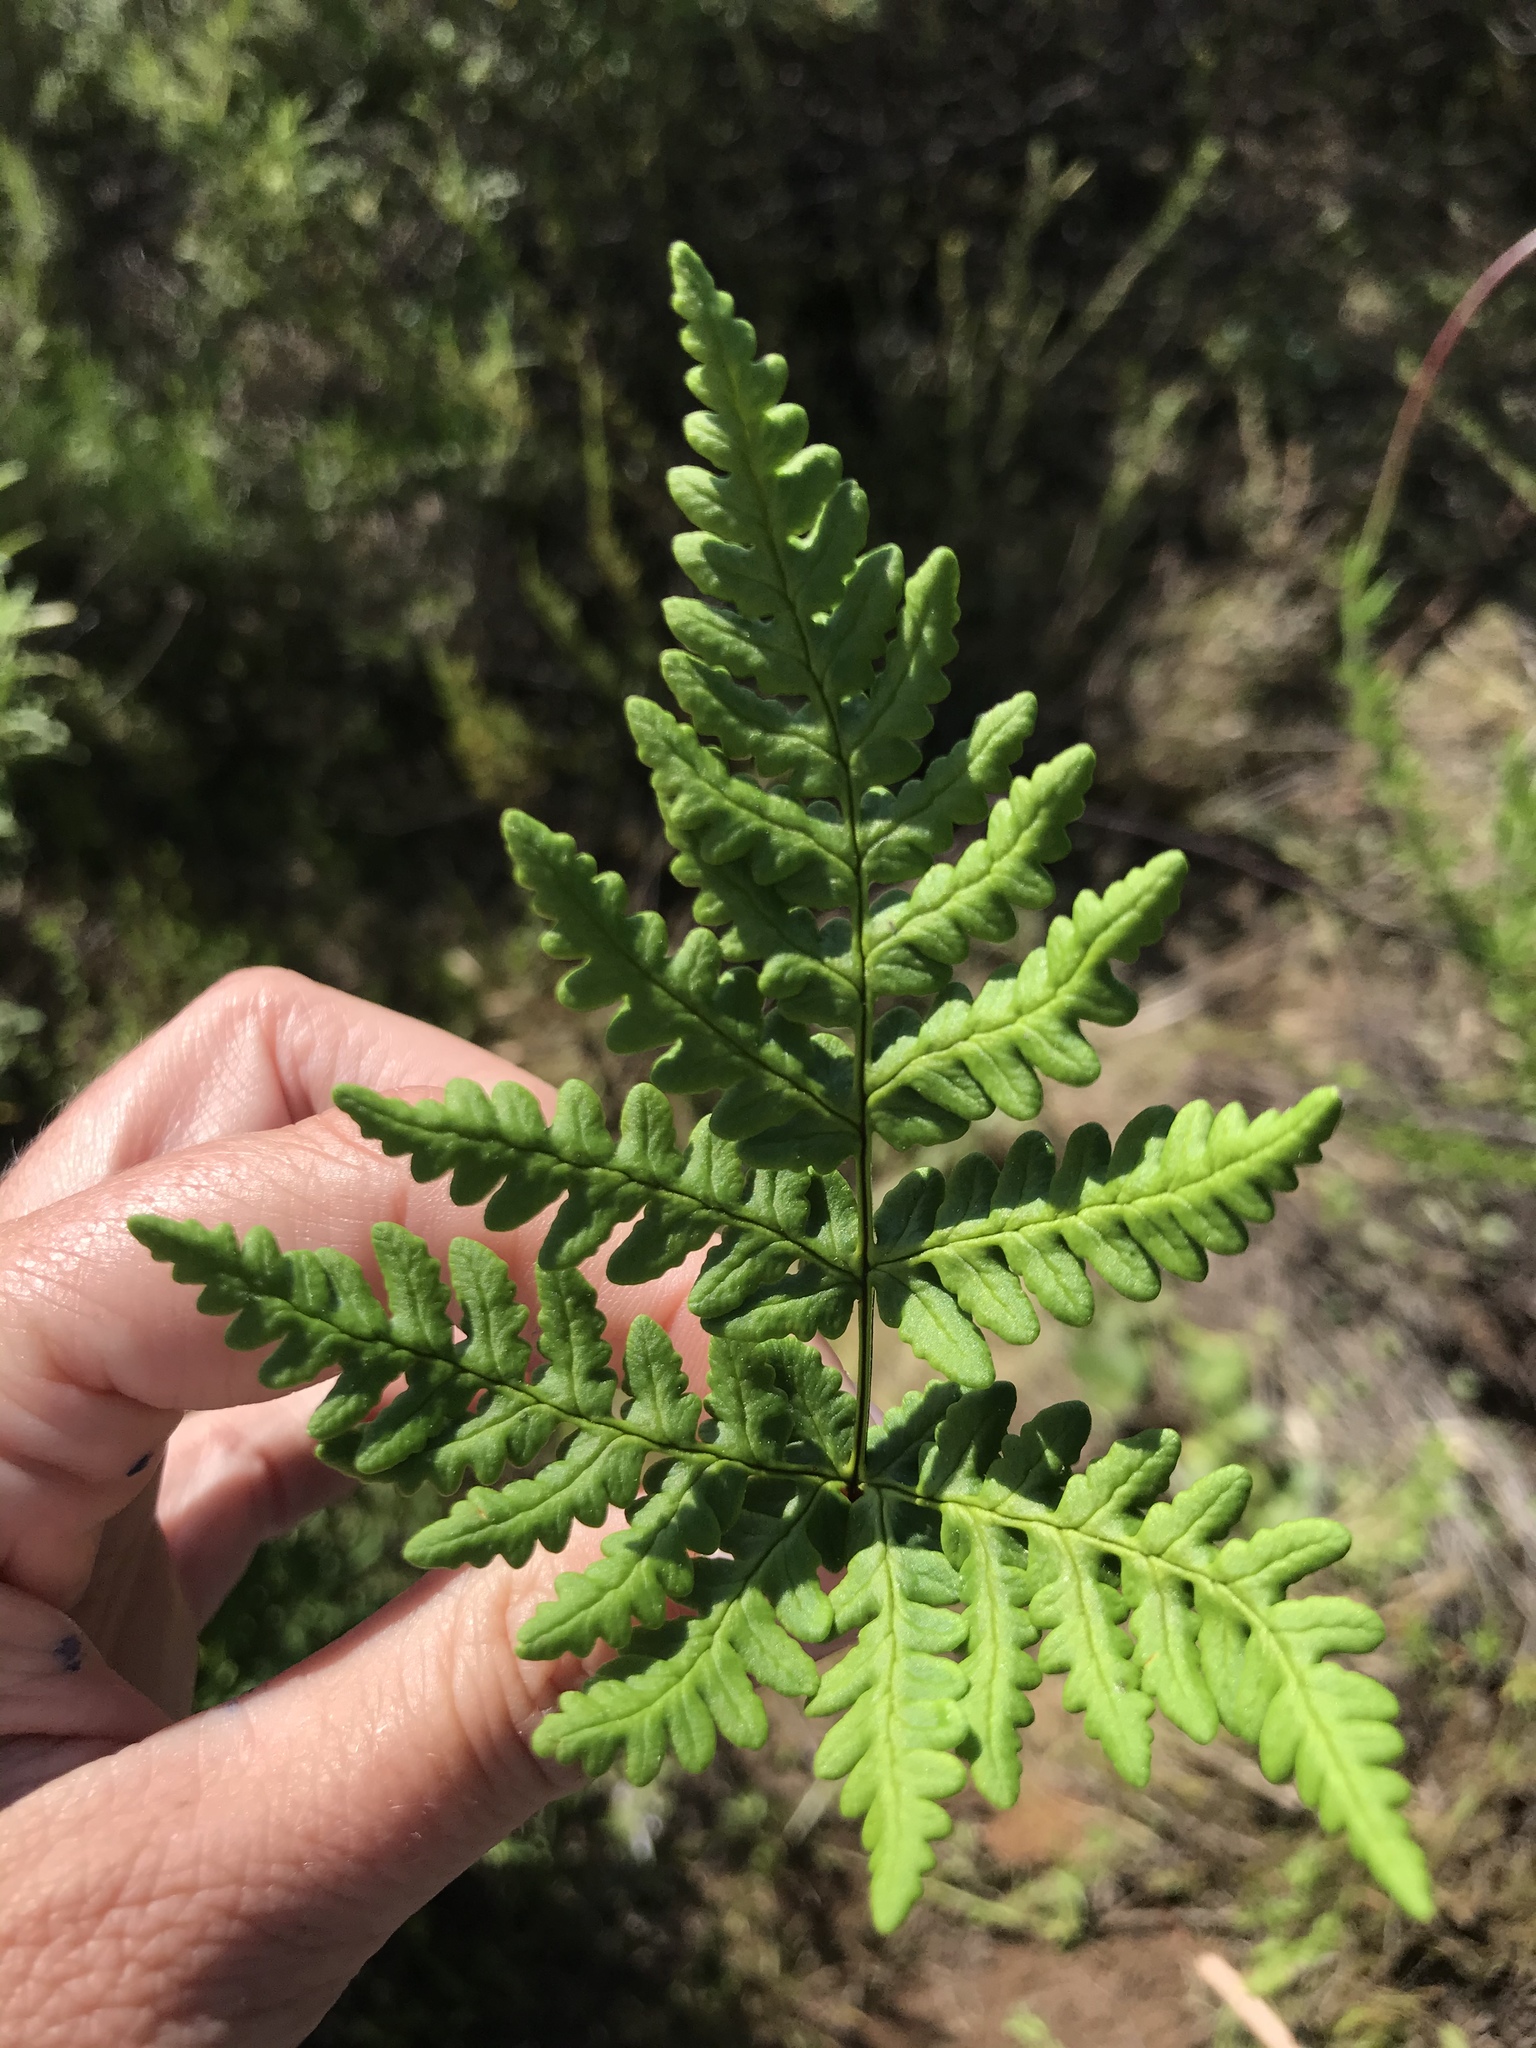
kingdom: Plantae
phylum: Tracheophyta
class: Polypodiopsida
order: Polypodiales
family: Pteridaceae
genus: Pentagramma
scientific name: Pentagramma triangularis
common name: Gold fern
